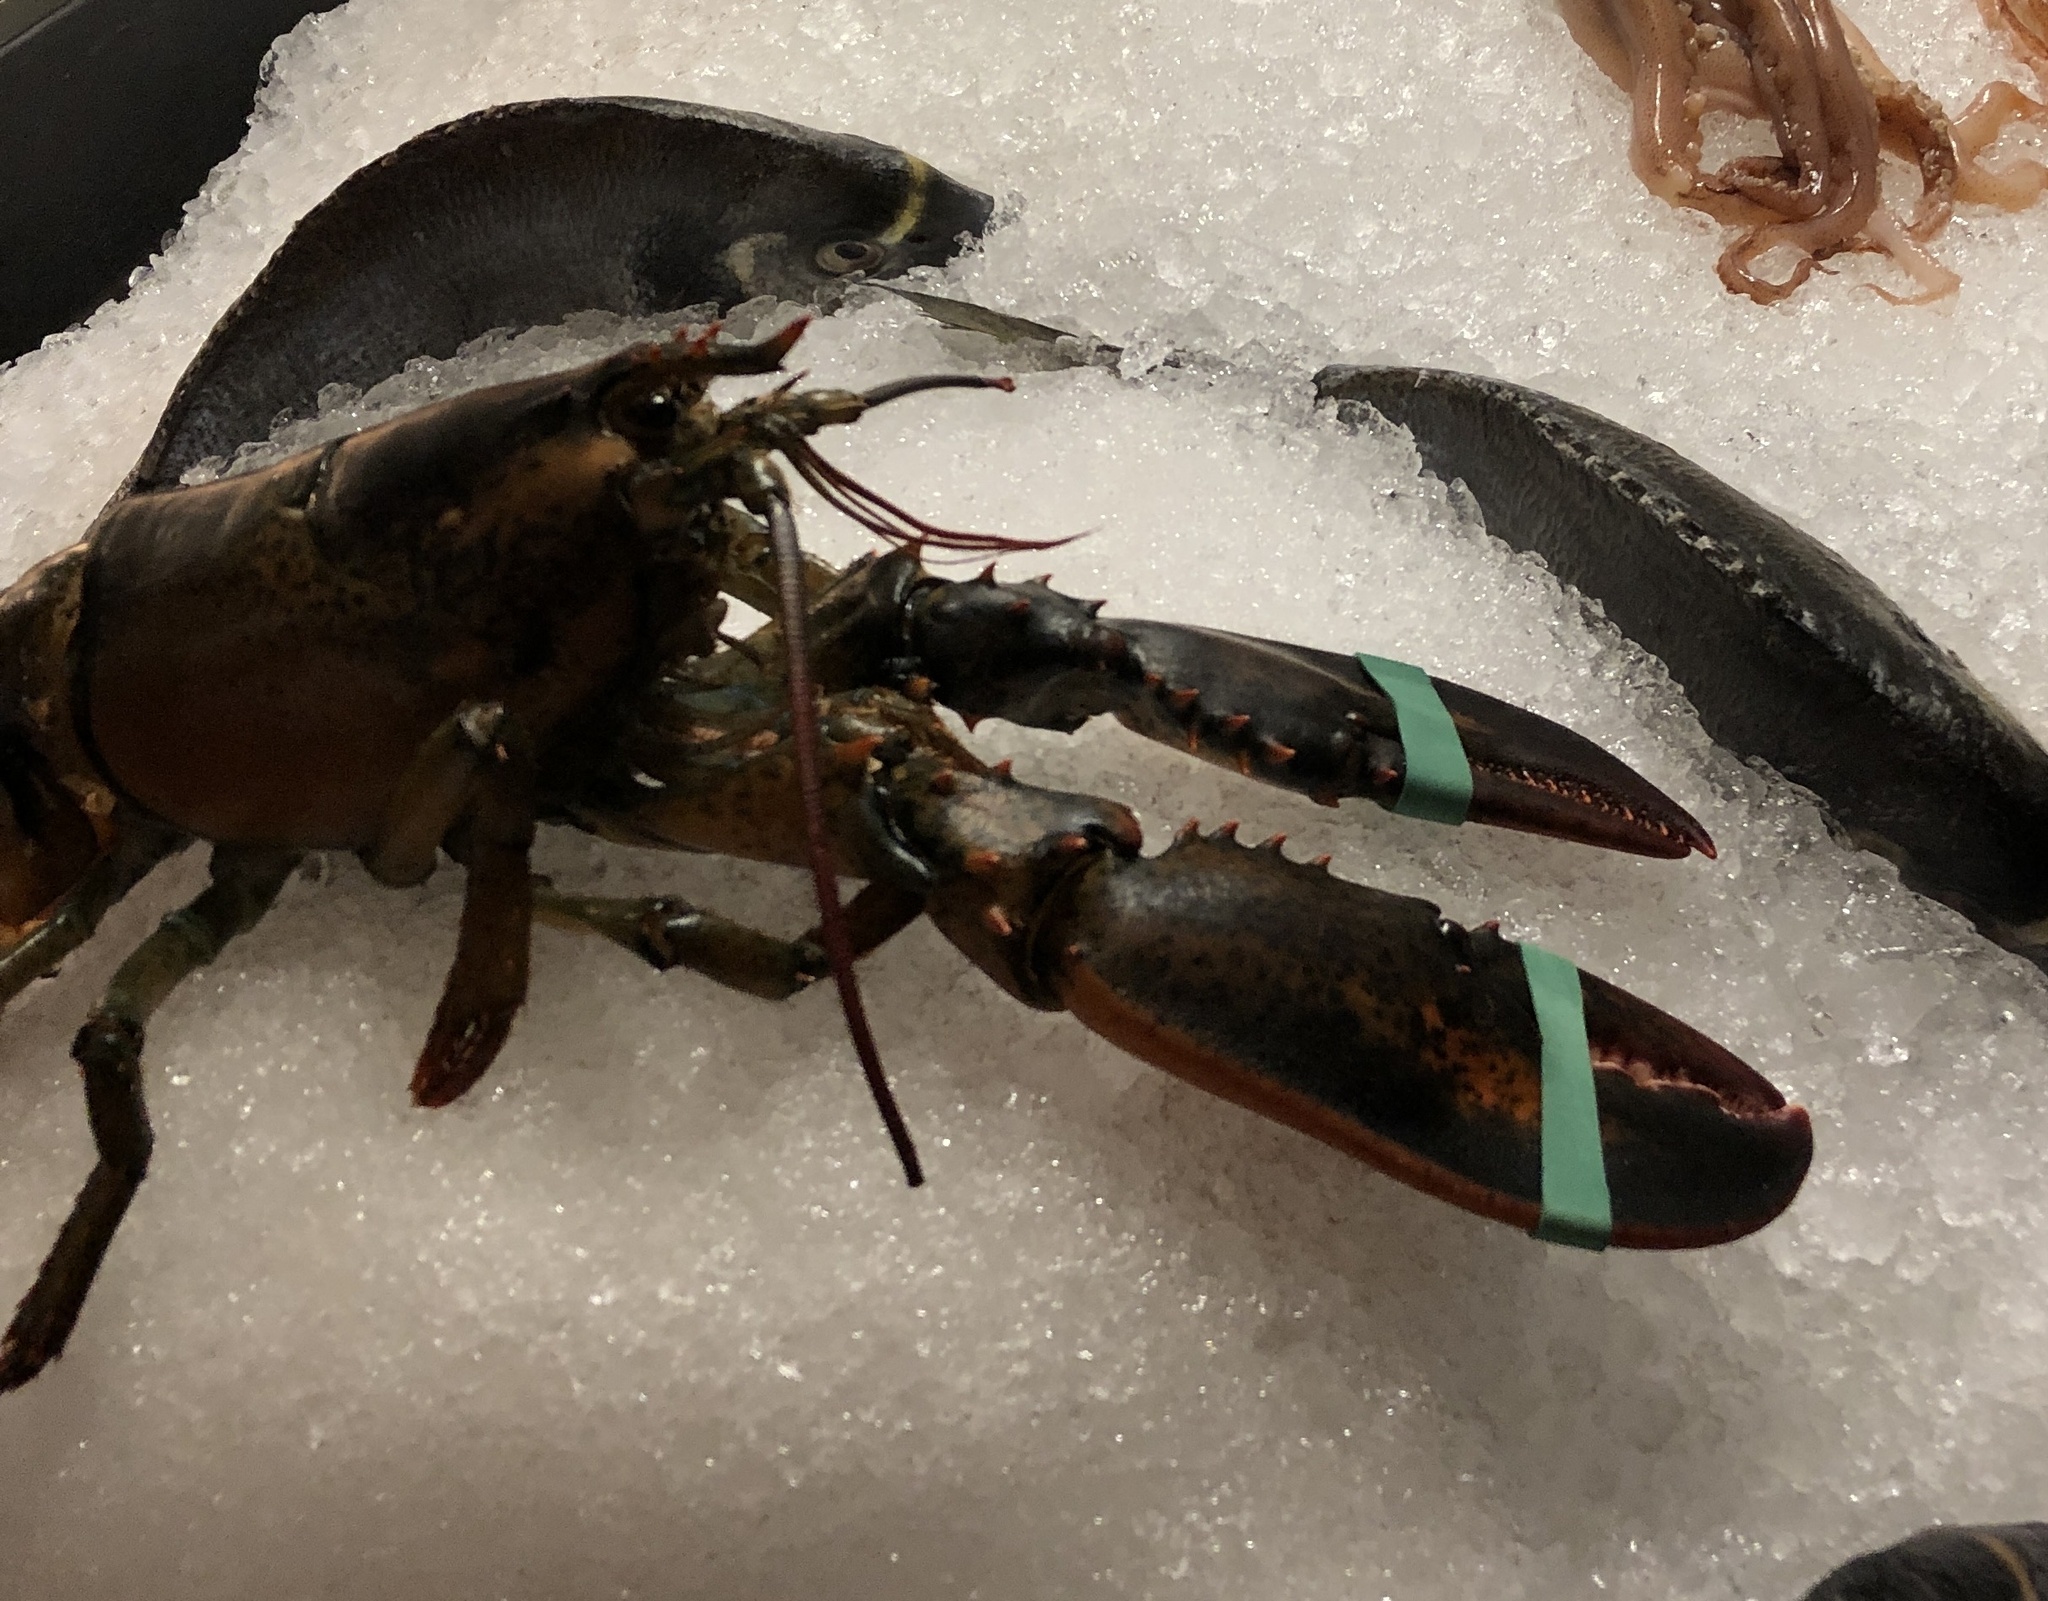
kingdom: Animalia
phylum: Arthropoda
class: Malacostraca
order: Decapoda
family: Nephropidae
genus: Homarus
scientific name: Homarus americanus
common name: American lobster
